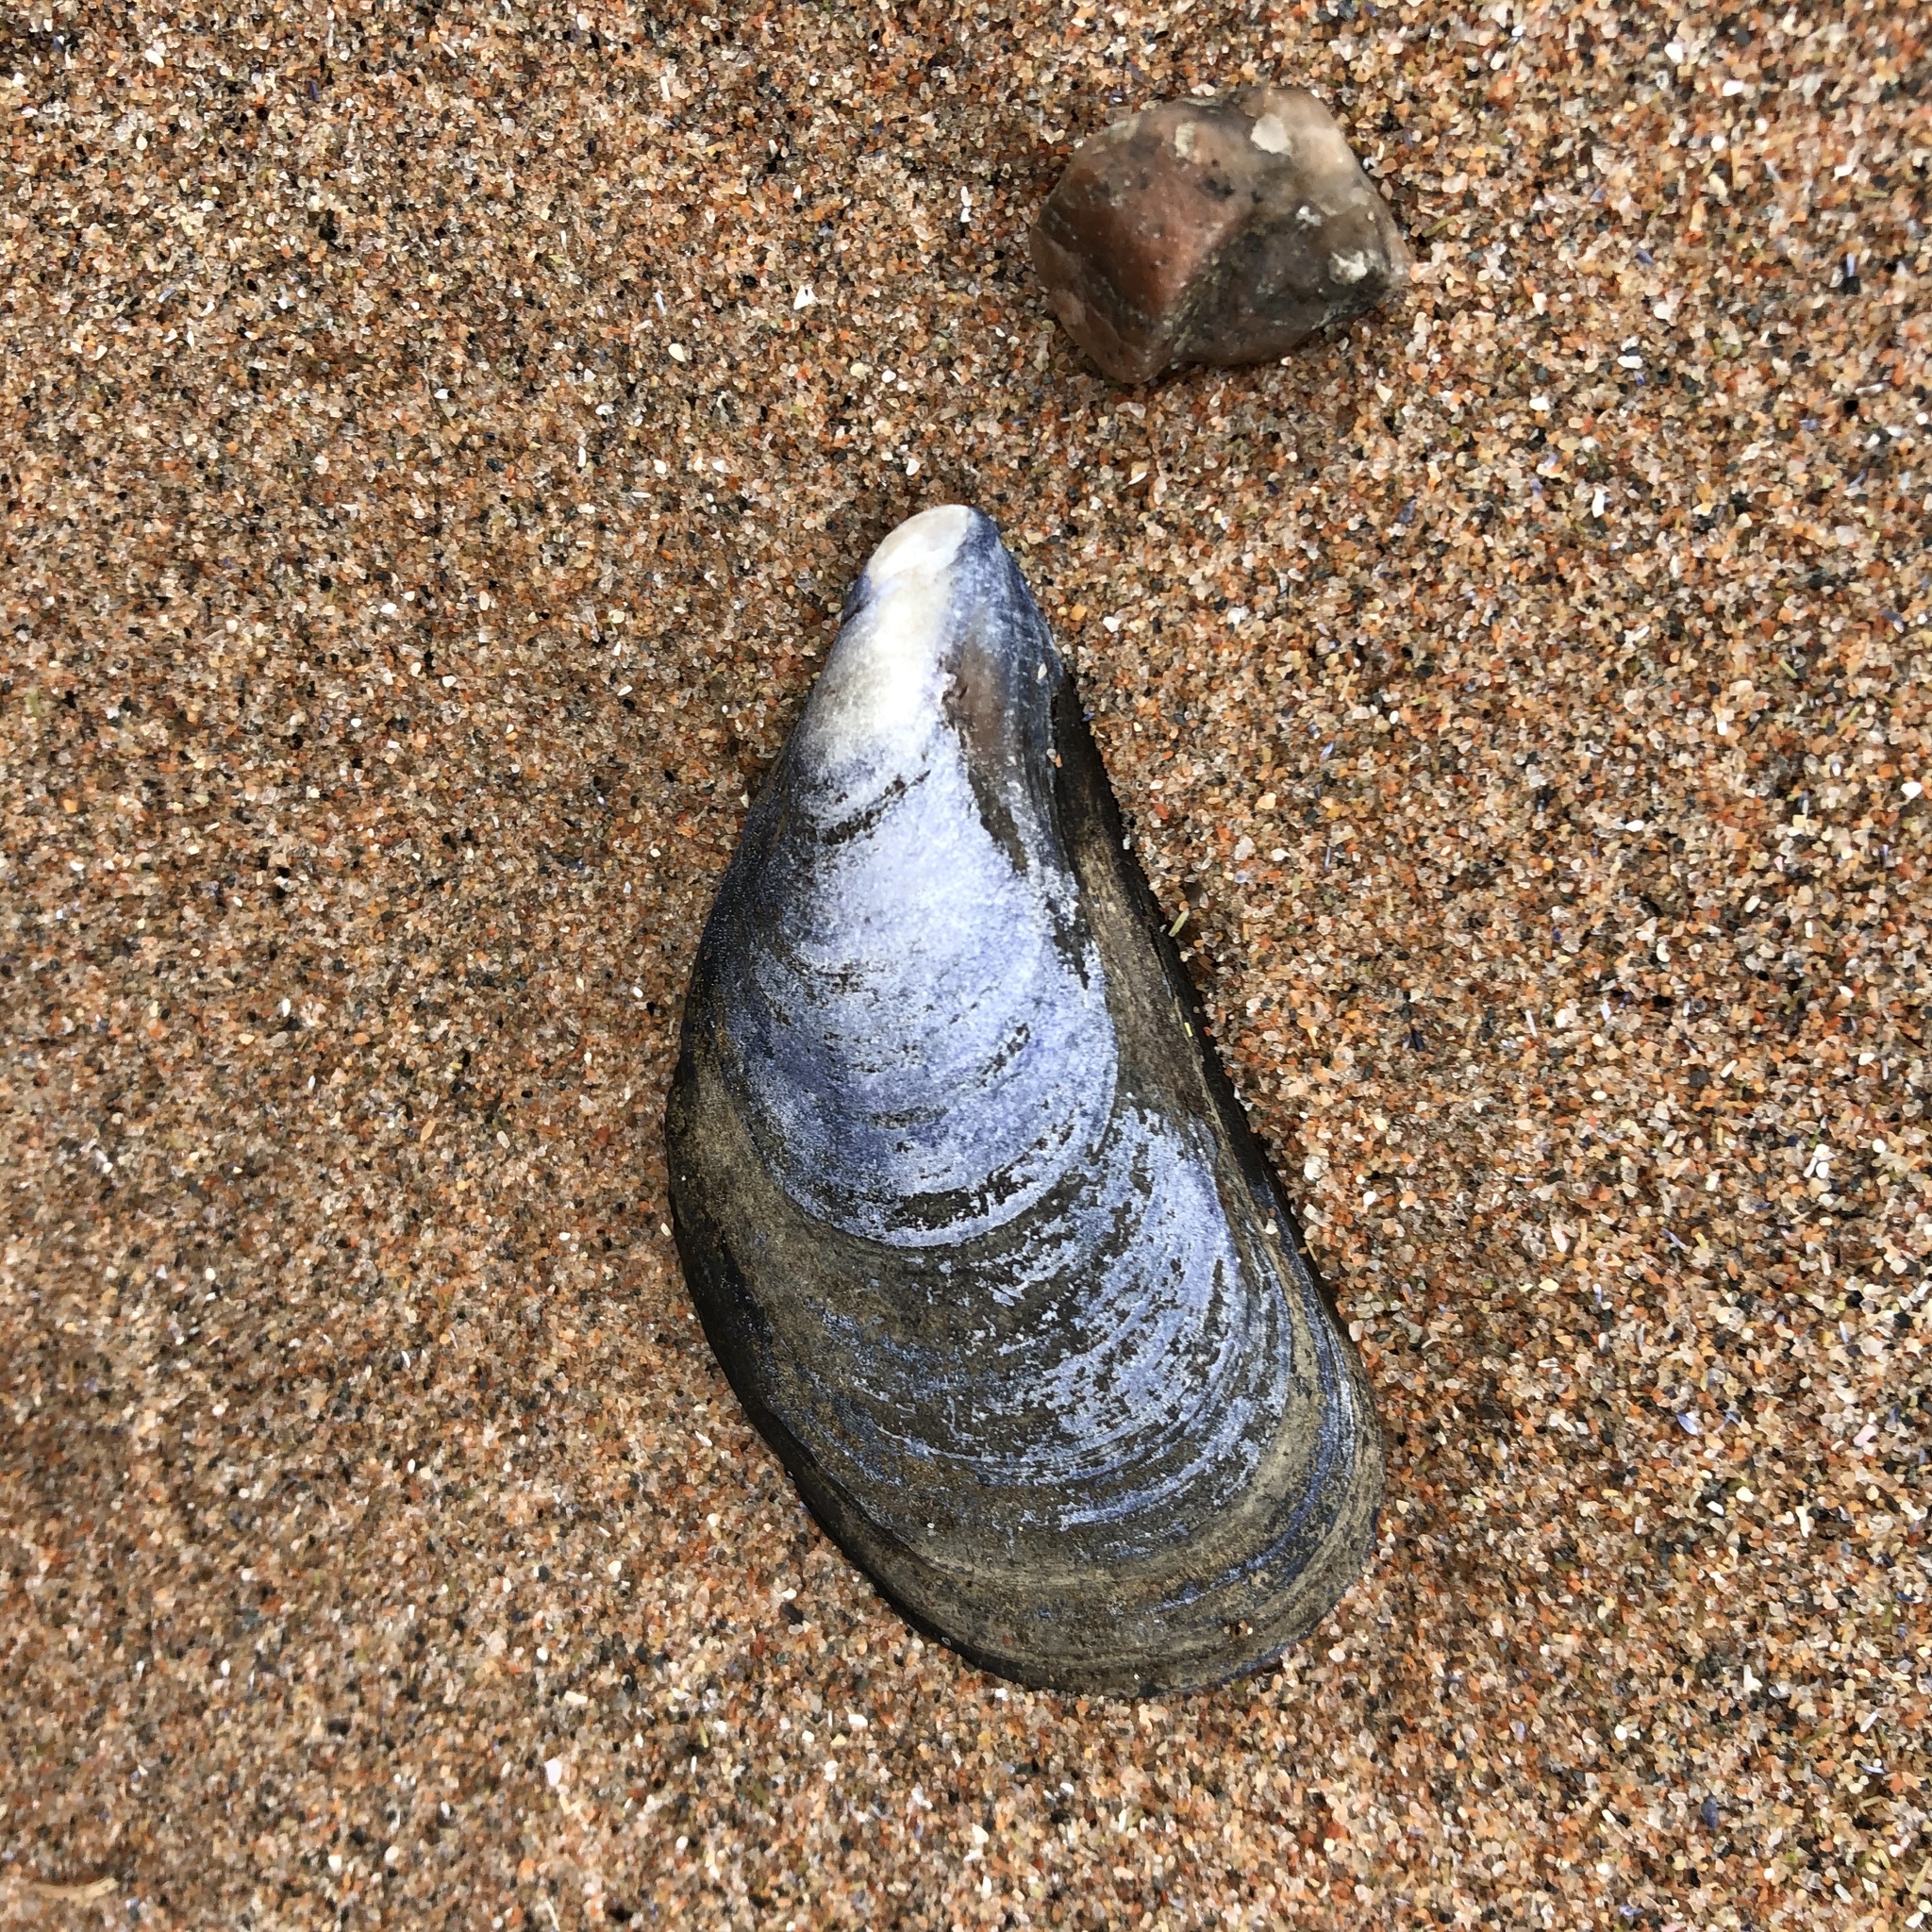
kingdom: Animalia
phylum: Mollusca
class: Bivalvia
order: Mytilida
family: Mytilidae
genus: Mytilus
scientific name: Mytilus edulis
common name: Blue mussel
